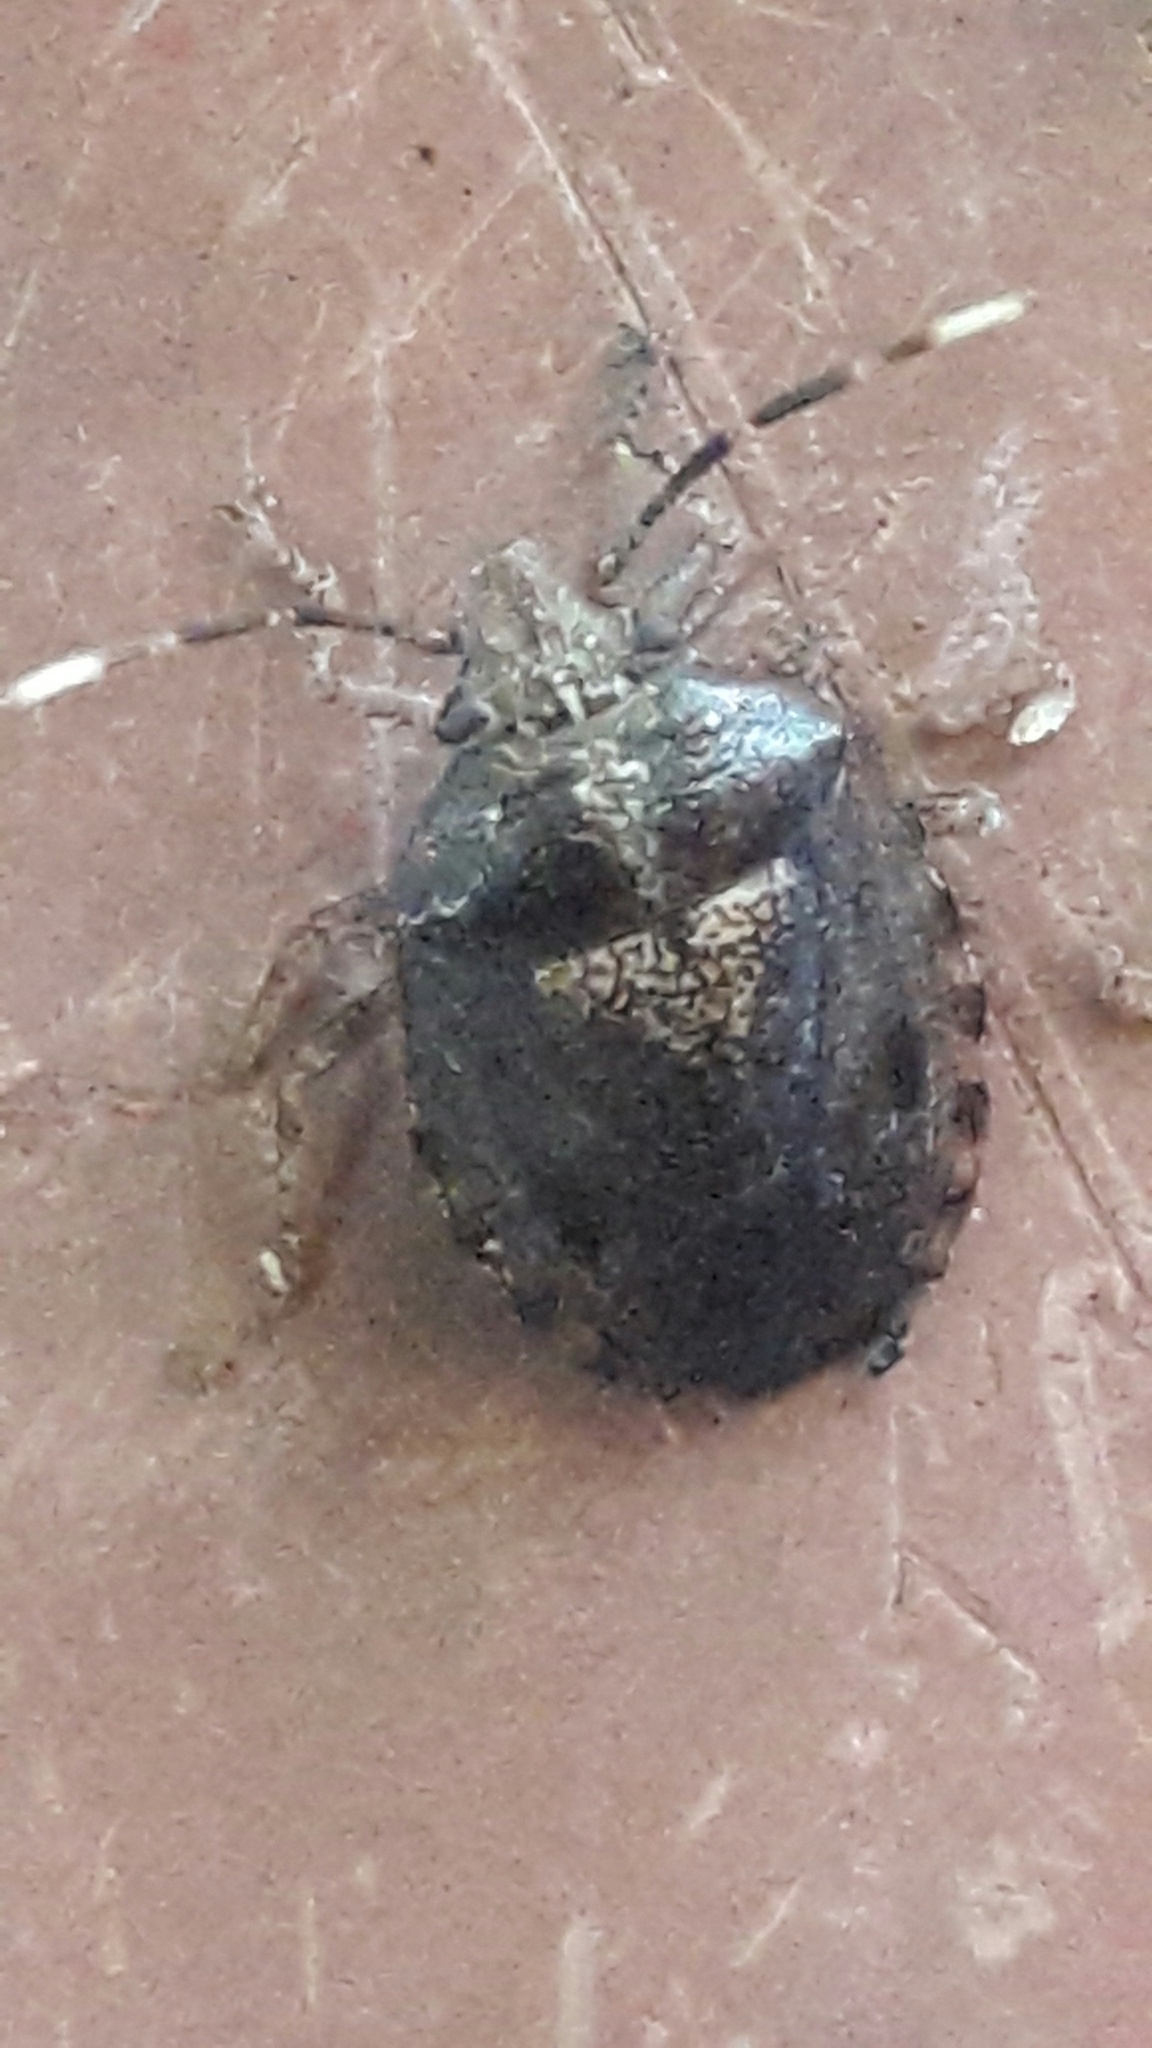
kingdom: Animalia
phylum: Arthropoda
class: Insecta
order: Hemiptera
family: Pentatomidae
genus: Antiteuchus
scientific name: Antiteuchus tripterus
